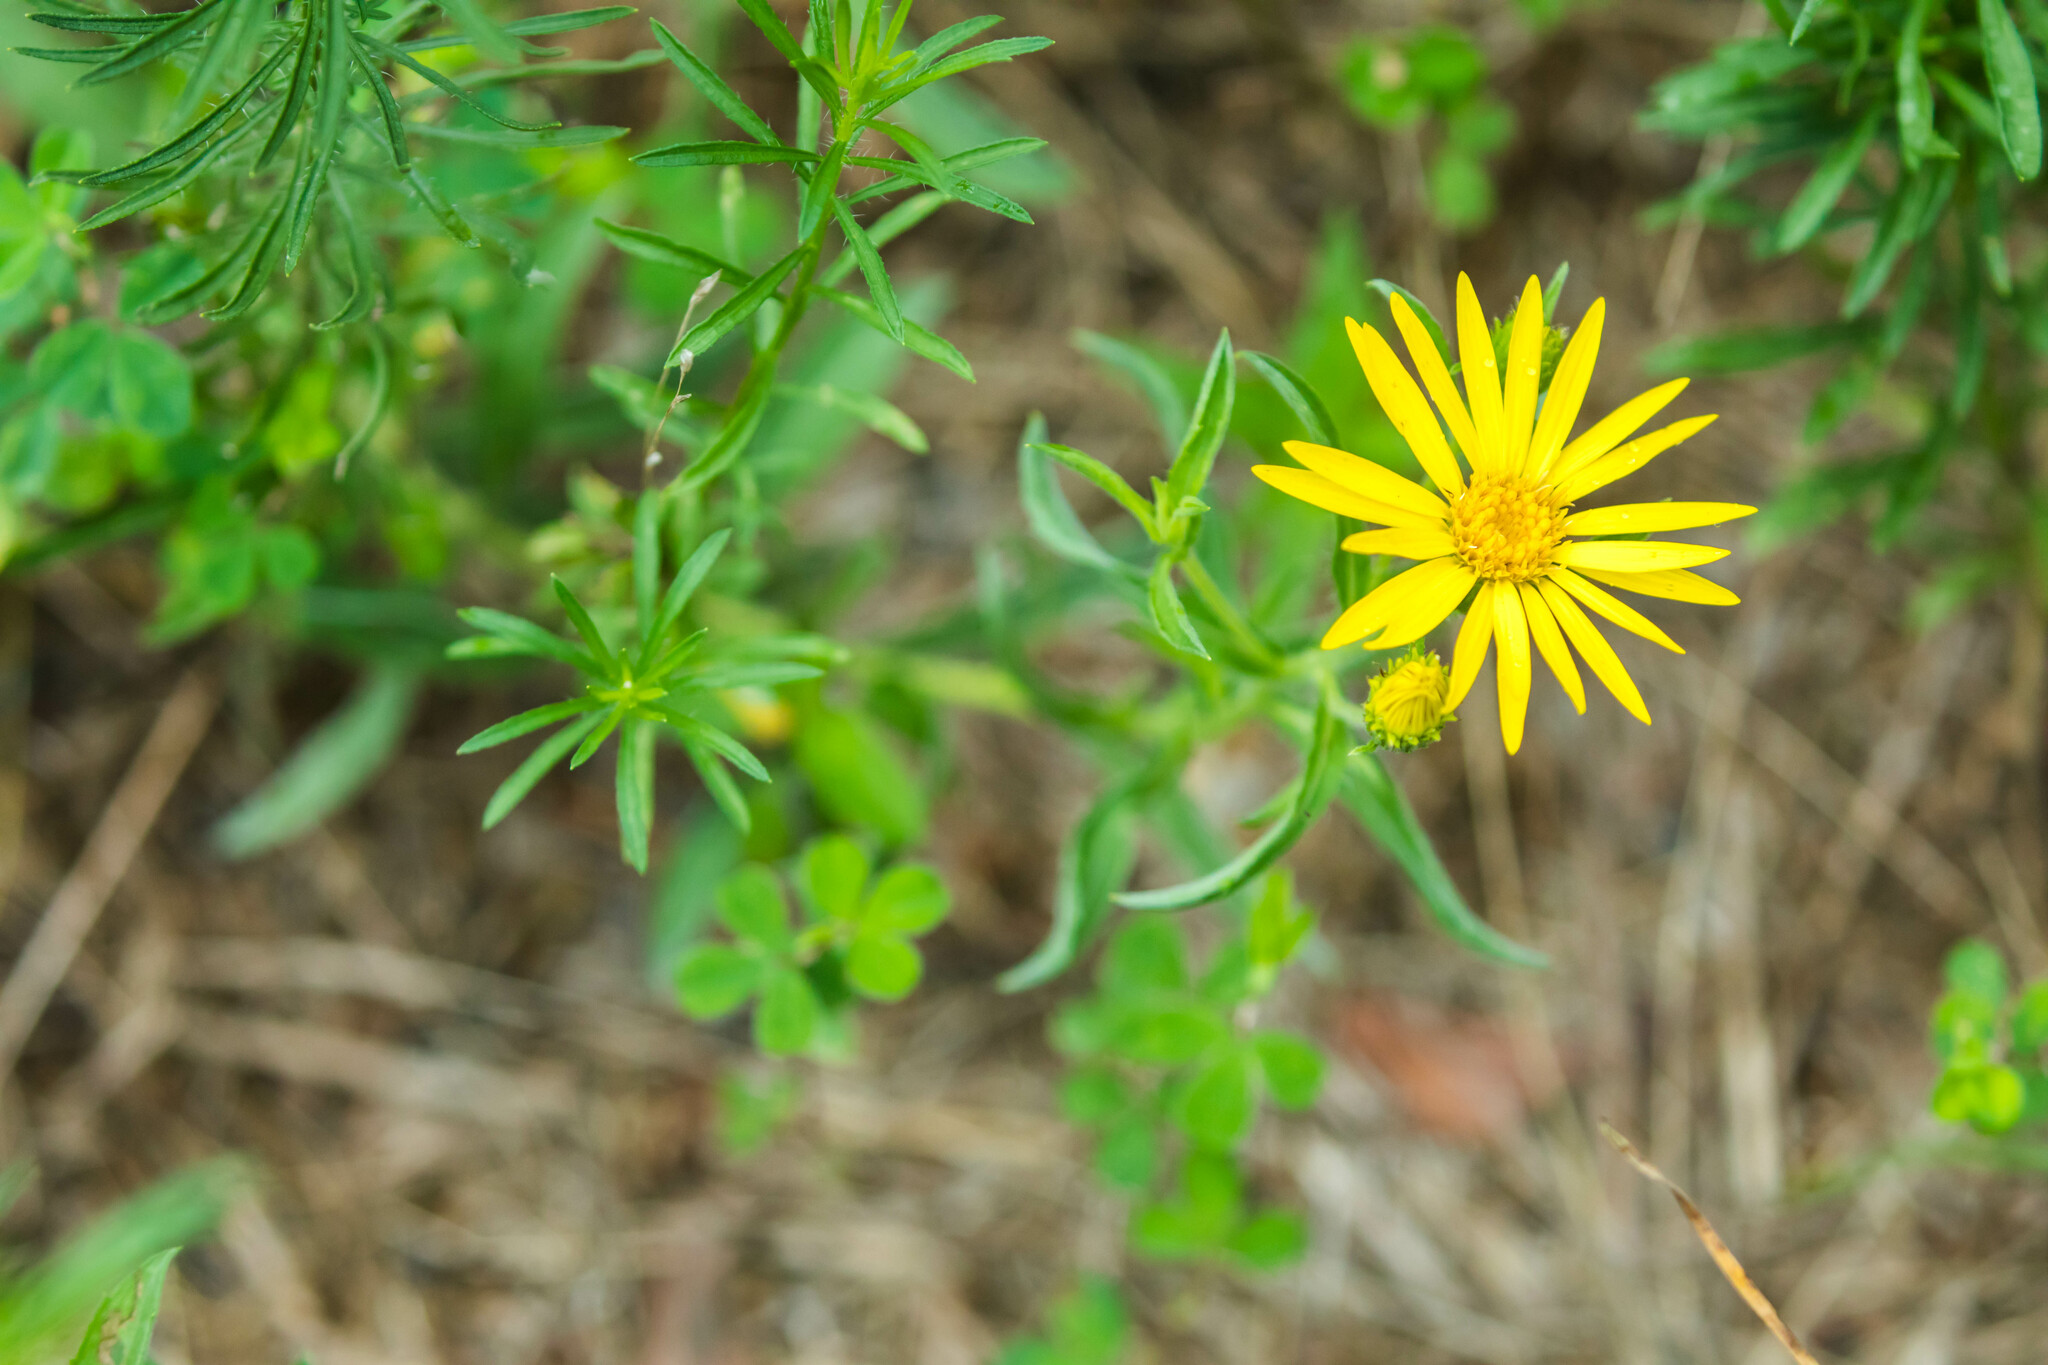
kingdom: Plantae
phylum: Tracheophyta
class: Magnoliopsida
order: Asterales
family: Asteraceae
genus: Heterotheca
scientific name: Heterotheca camporum
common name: Prairie golden-aster
